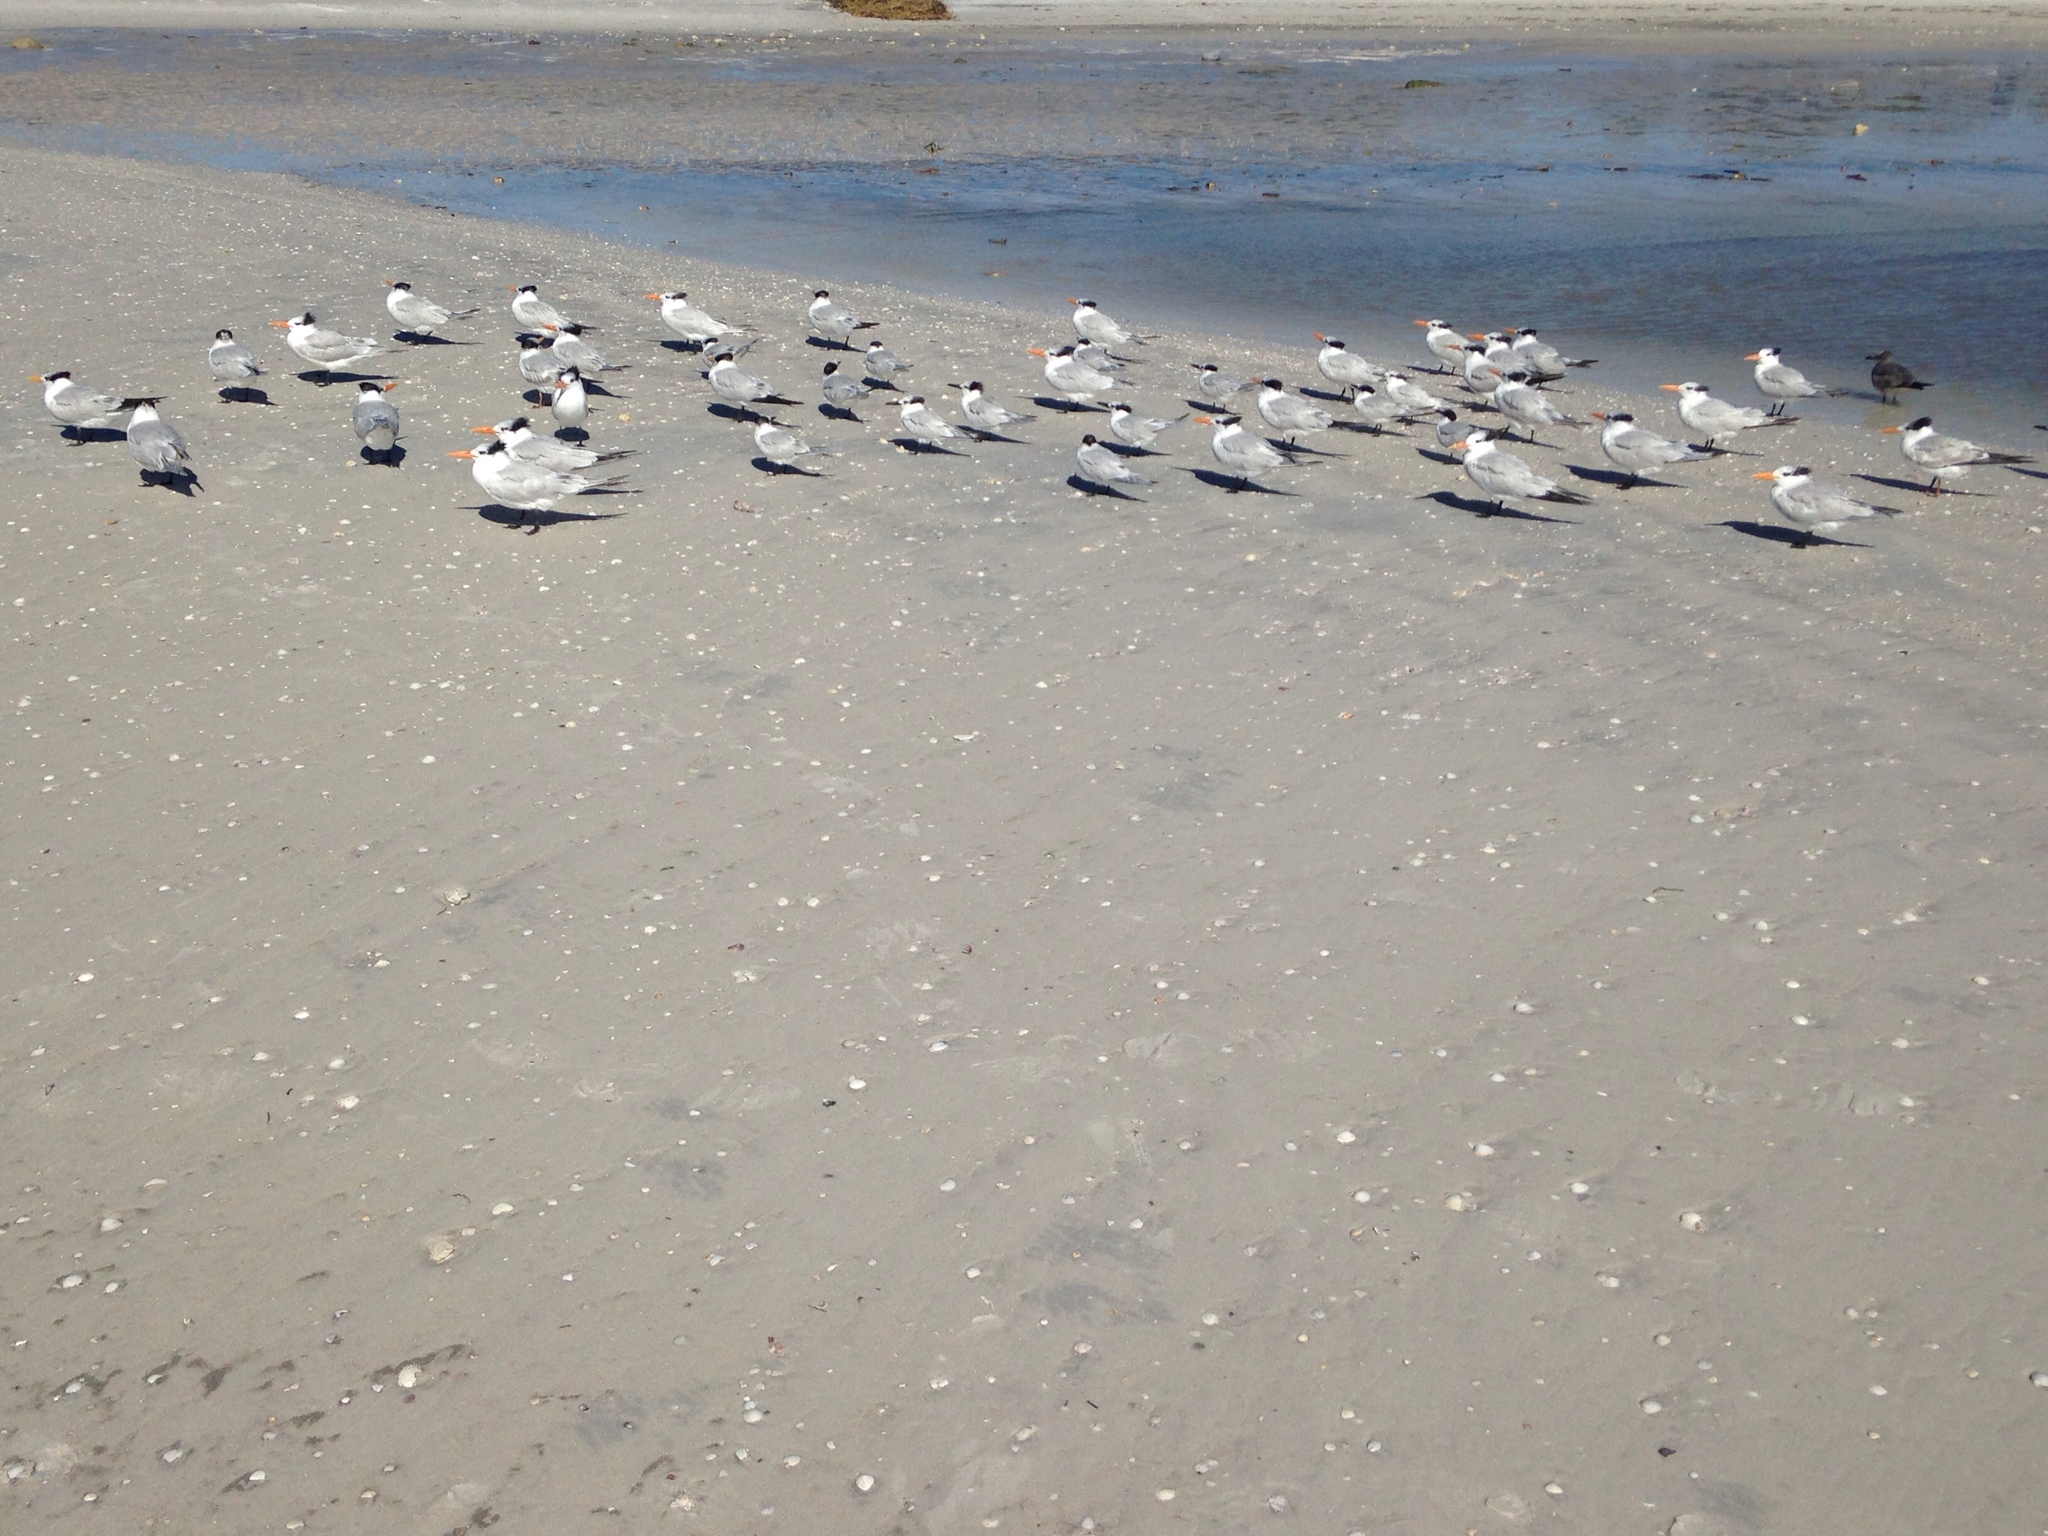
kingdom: Animalia
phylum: Chordata
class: Aves
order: Charadriiformes
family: Laridae
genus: Thalasseus
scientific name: Thalasseus maximus
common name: Royal tern
